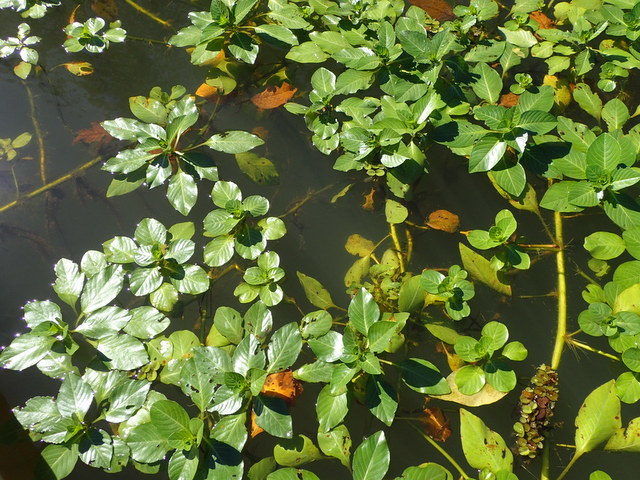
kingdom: Plantae
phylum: Tracheophyta
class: Magnoliopsida
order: Myrtales
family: Onagraceae
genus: Ludwigia
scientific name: Ludwigia repens
